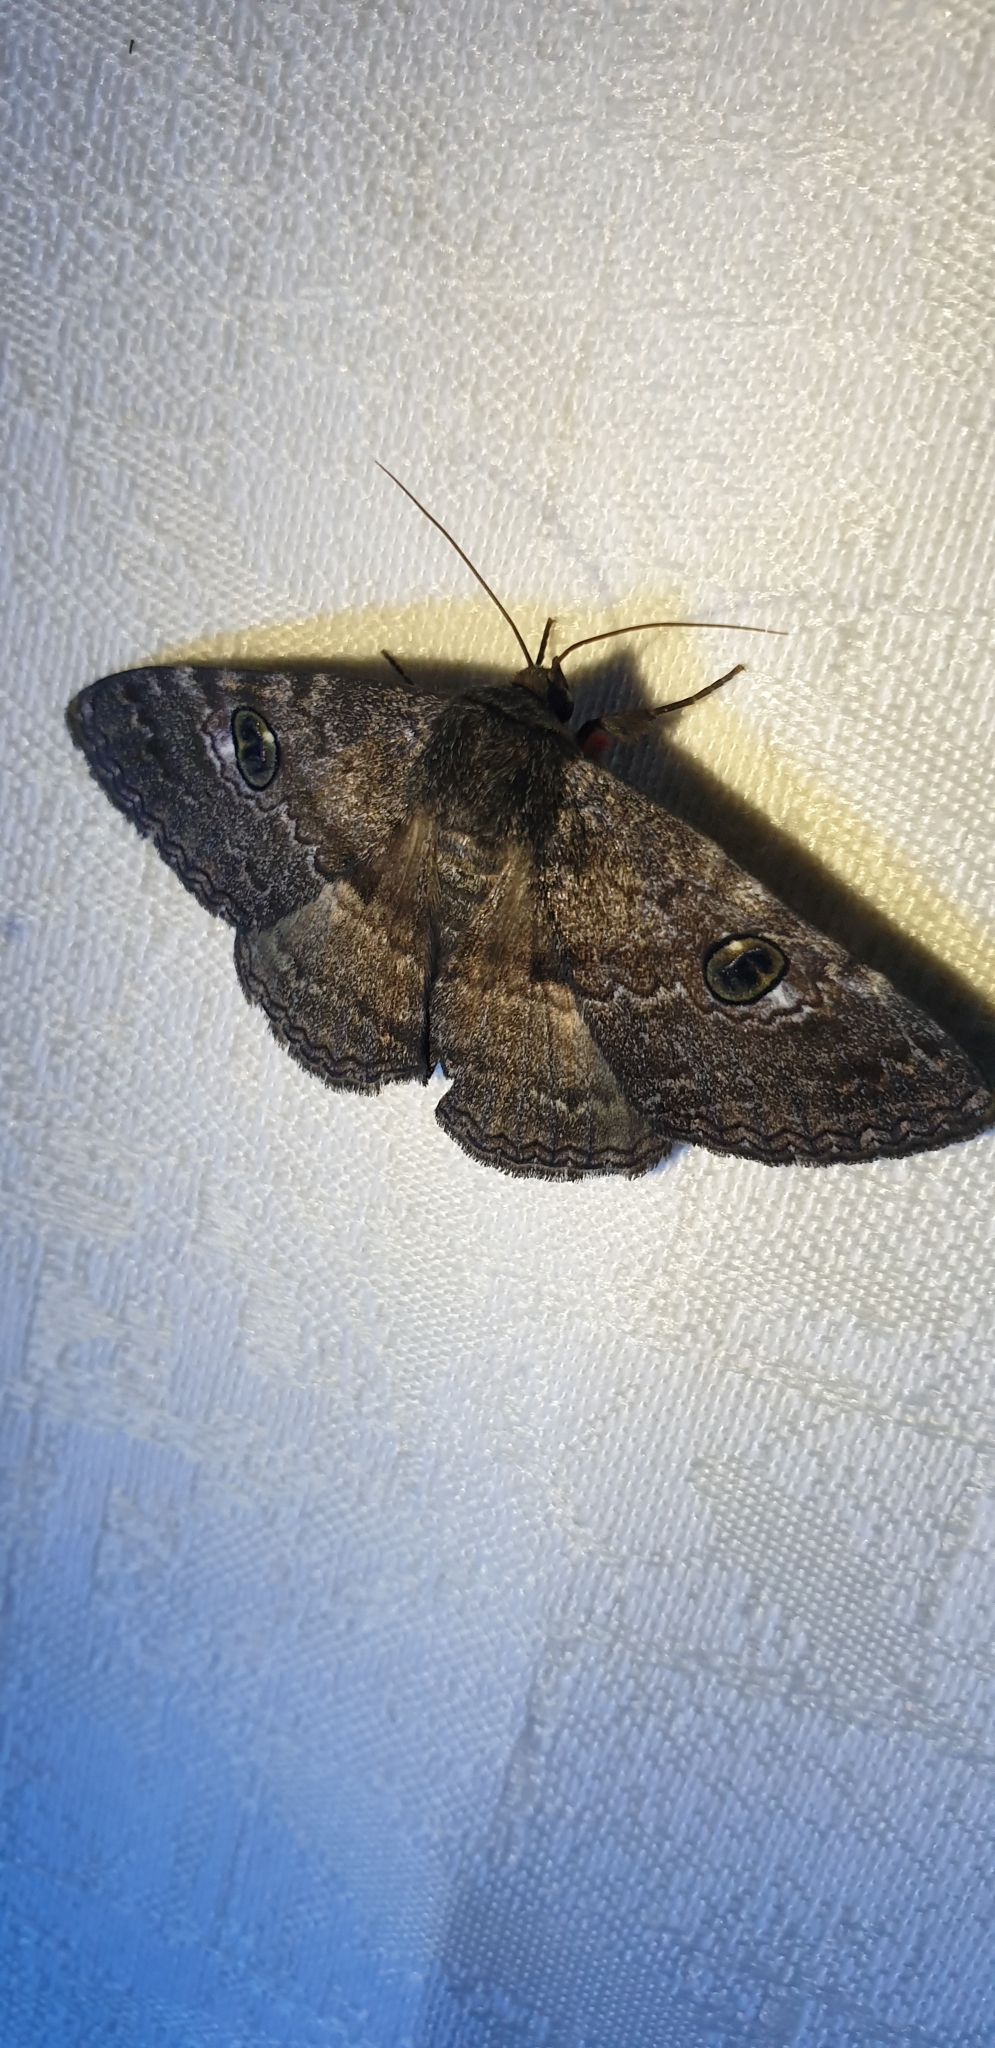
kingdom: Animalia
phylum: Arthropoda
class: Insecta
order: Lepidoptera
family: Erebidae
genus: Donuca
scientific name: Donuca castalia
